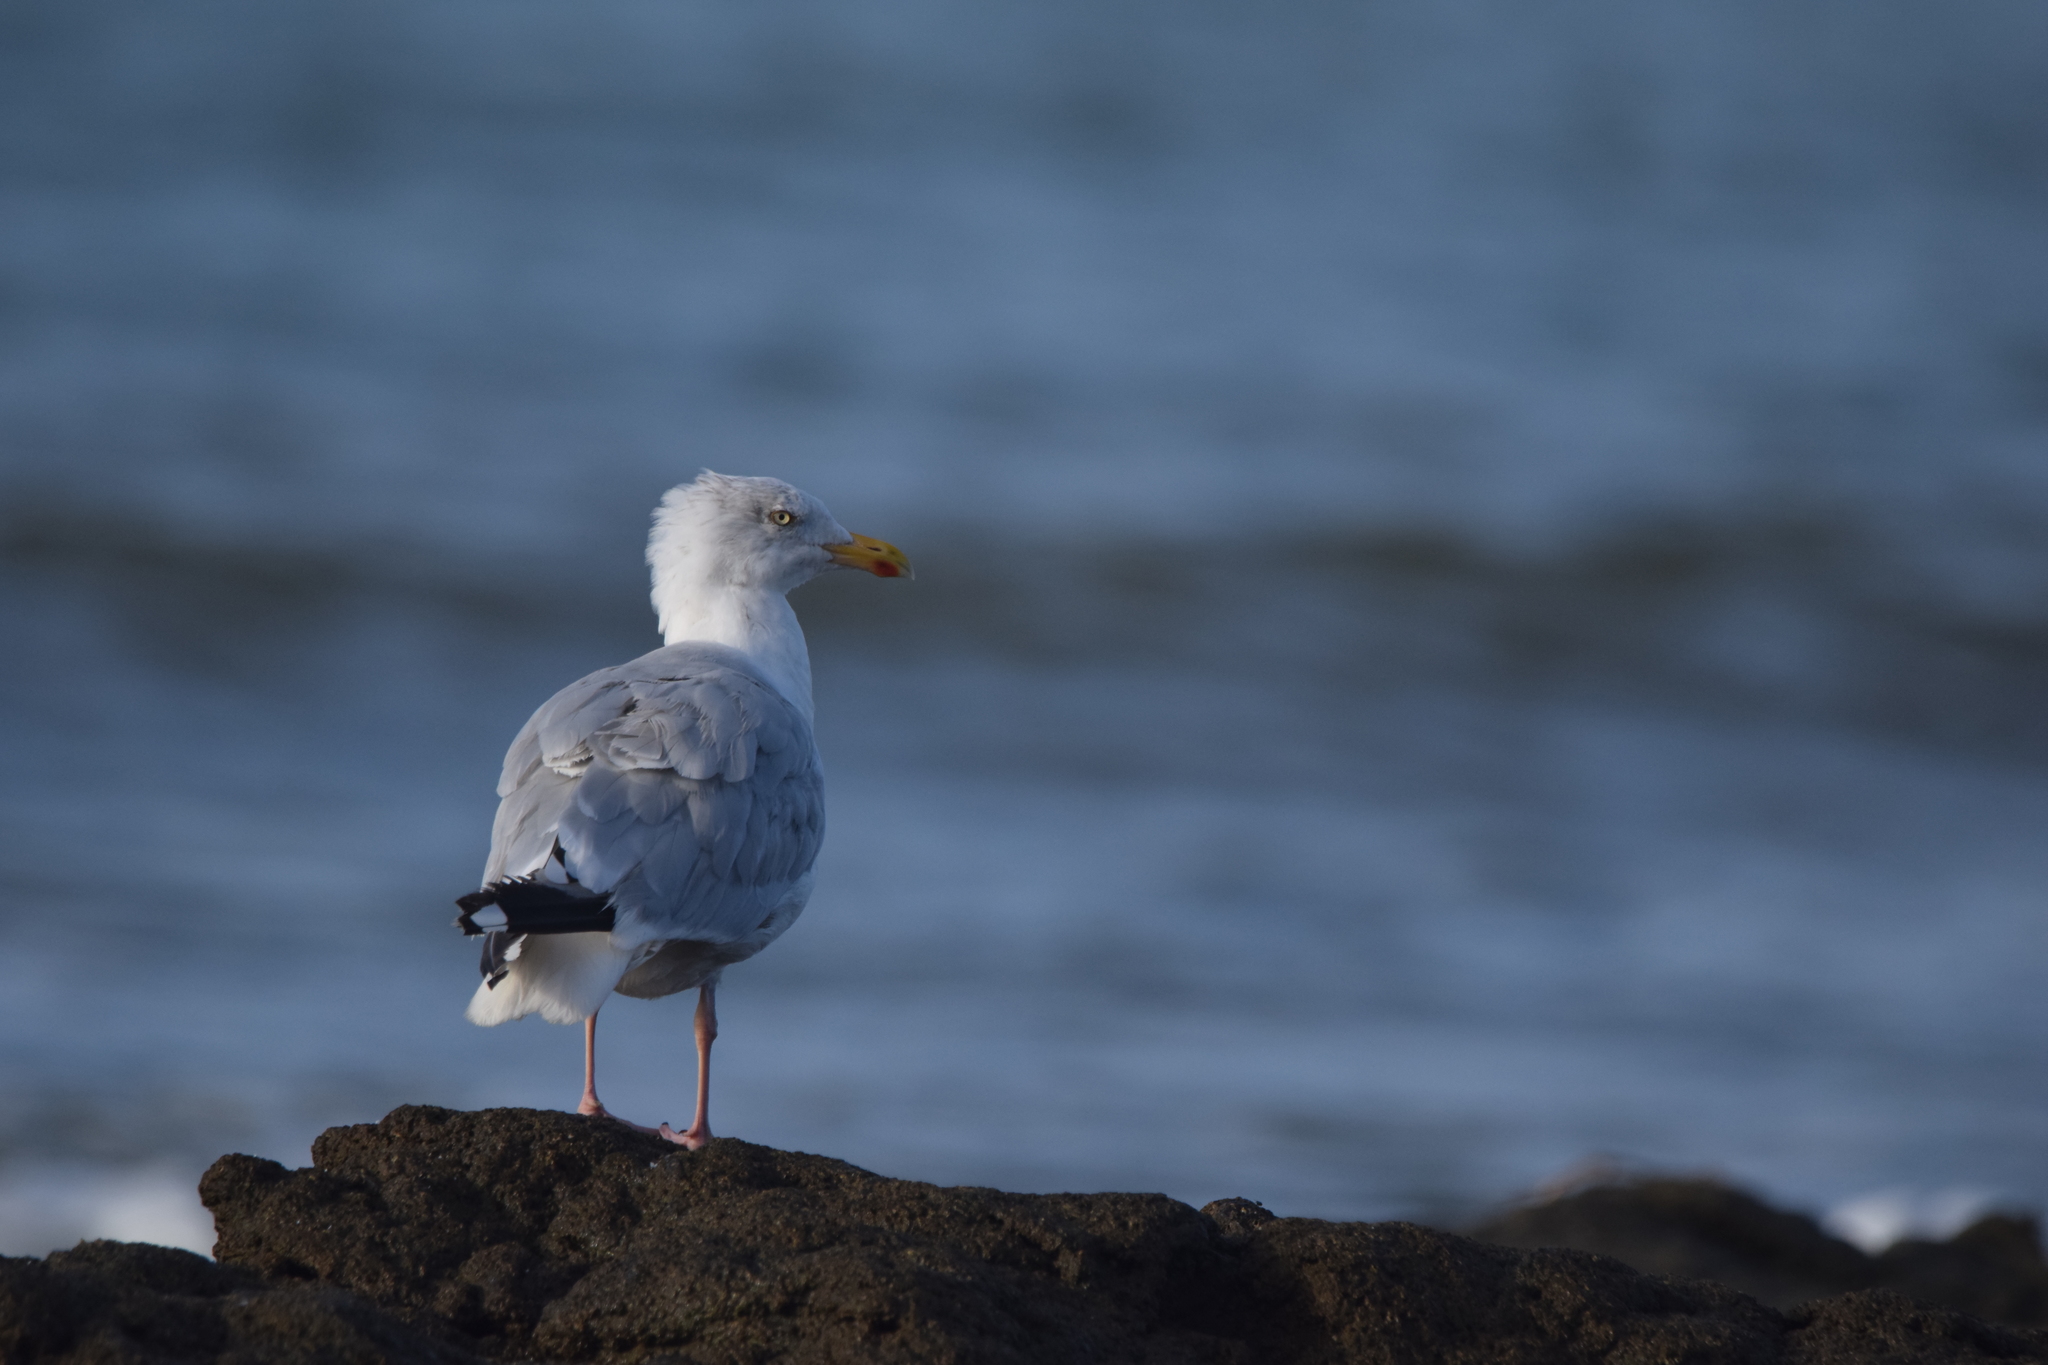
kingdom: Animalia
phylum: Chordata
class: Aves
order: Charadriiformes
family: Laridae
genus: Larus
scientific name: Larus argentatus
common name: Herring gull
